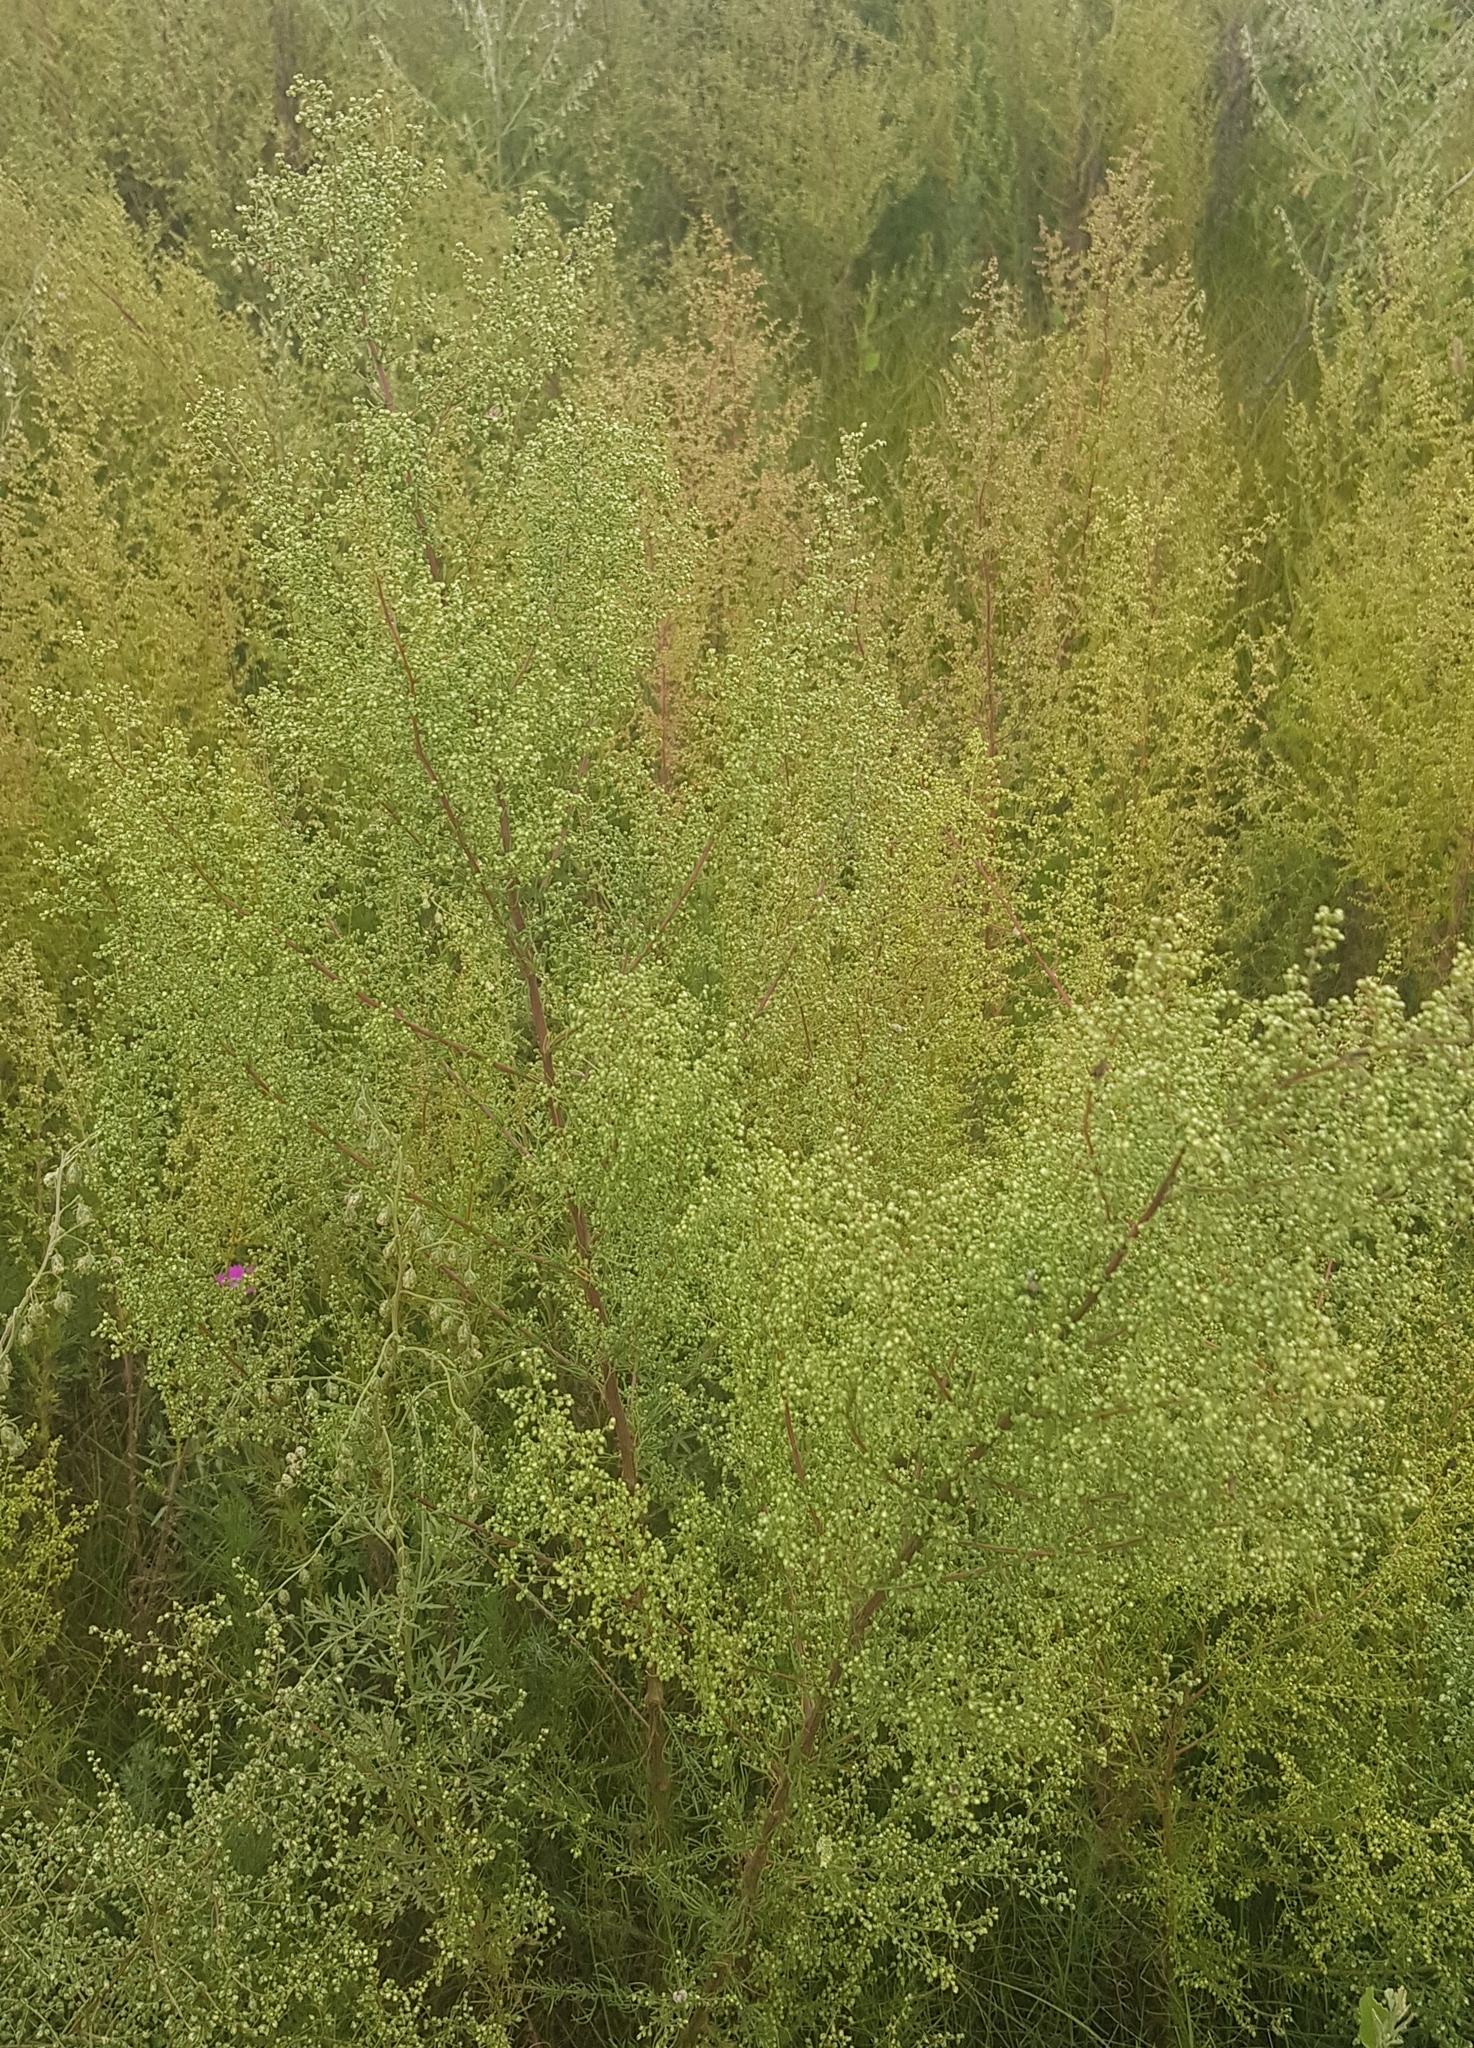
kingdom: Plantae
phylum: Tracheophyta
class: Magnoliopsida
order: Asterales
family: Asteraceae
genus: Artemisia
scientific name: Artemisia scoparia
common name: Redstem wormwood
